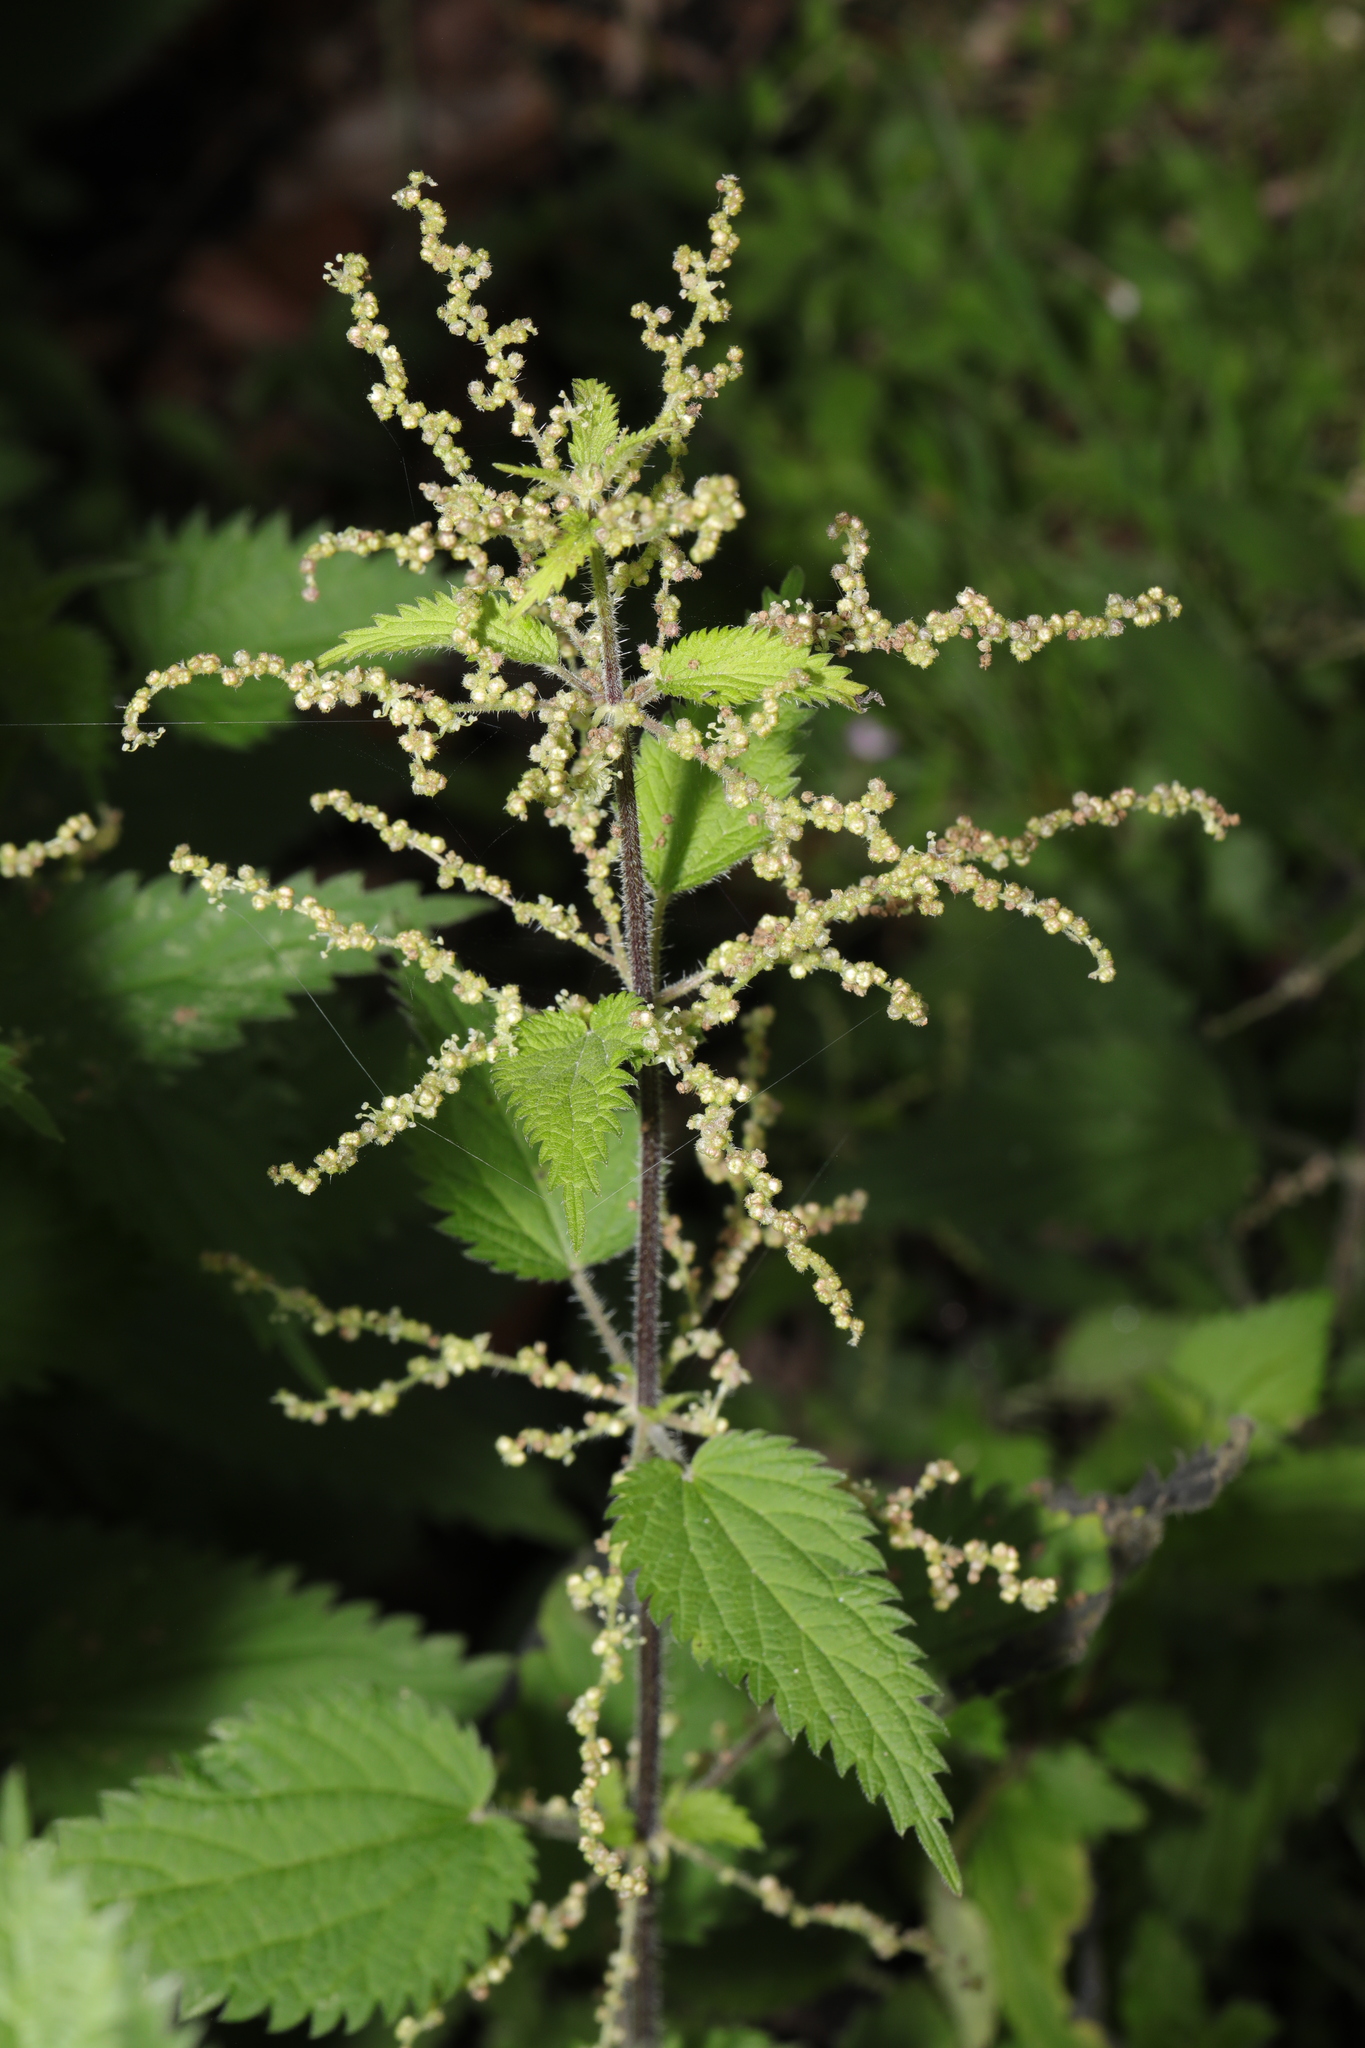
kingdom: Plantae
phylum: Tracheophyta
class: Magnoliopsida
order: Rosales
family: Urticaceae
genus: Urtica
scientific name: Urtica dioica
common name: Common nettle
